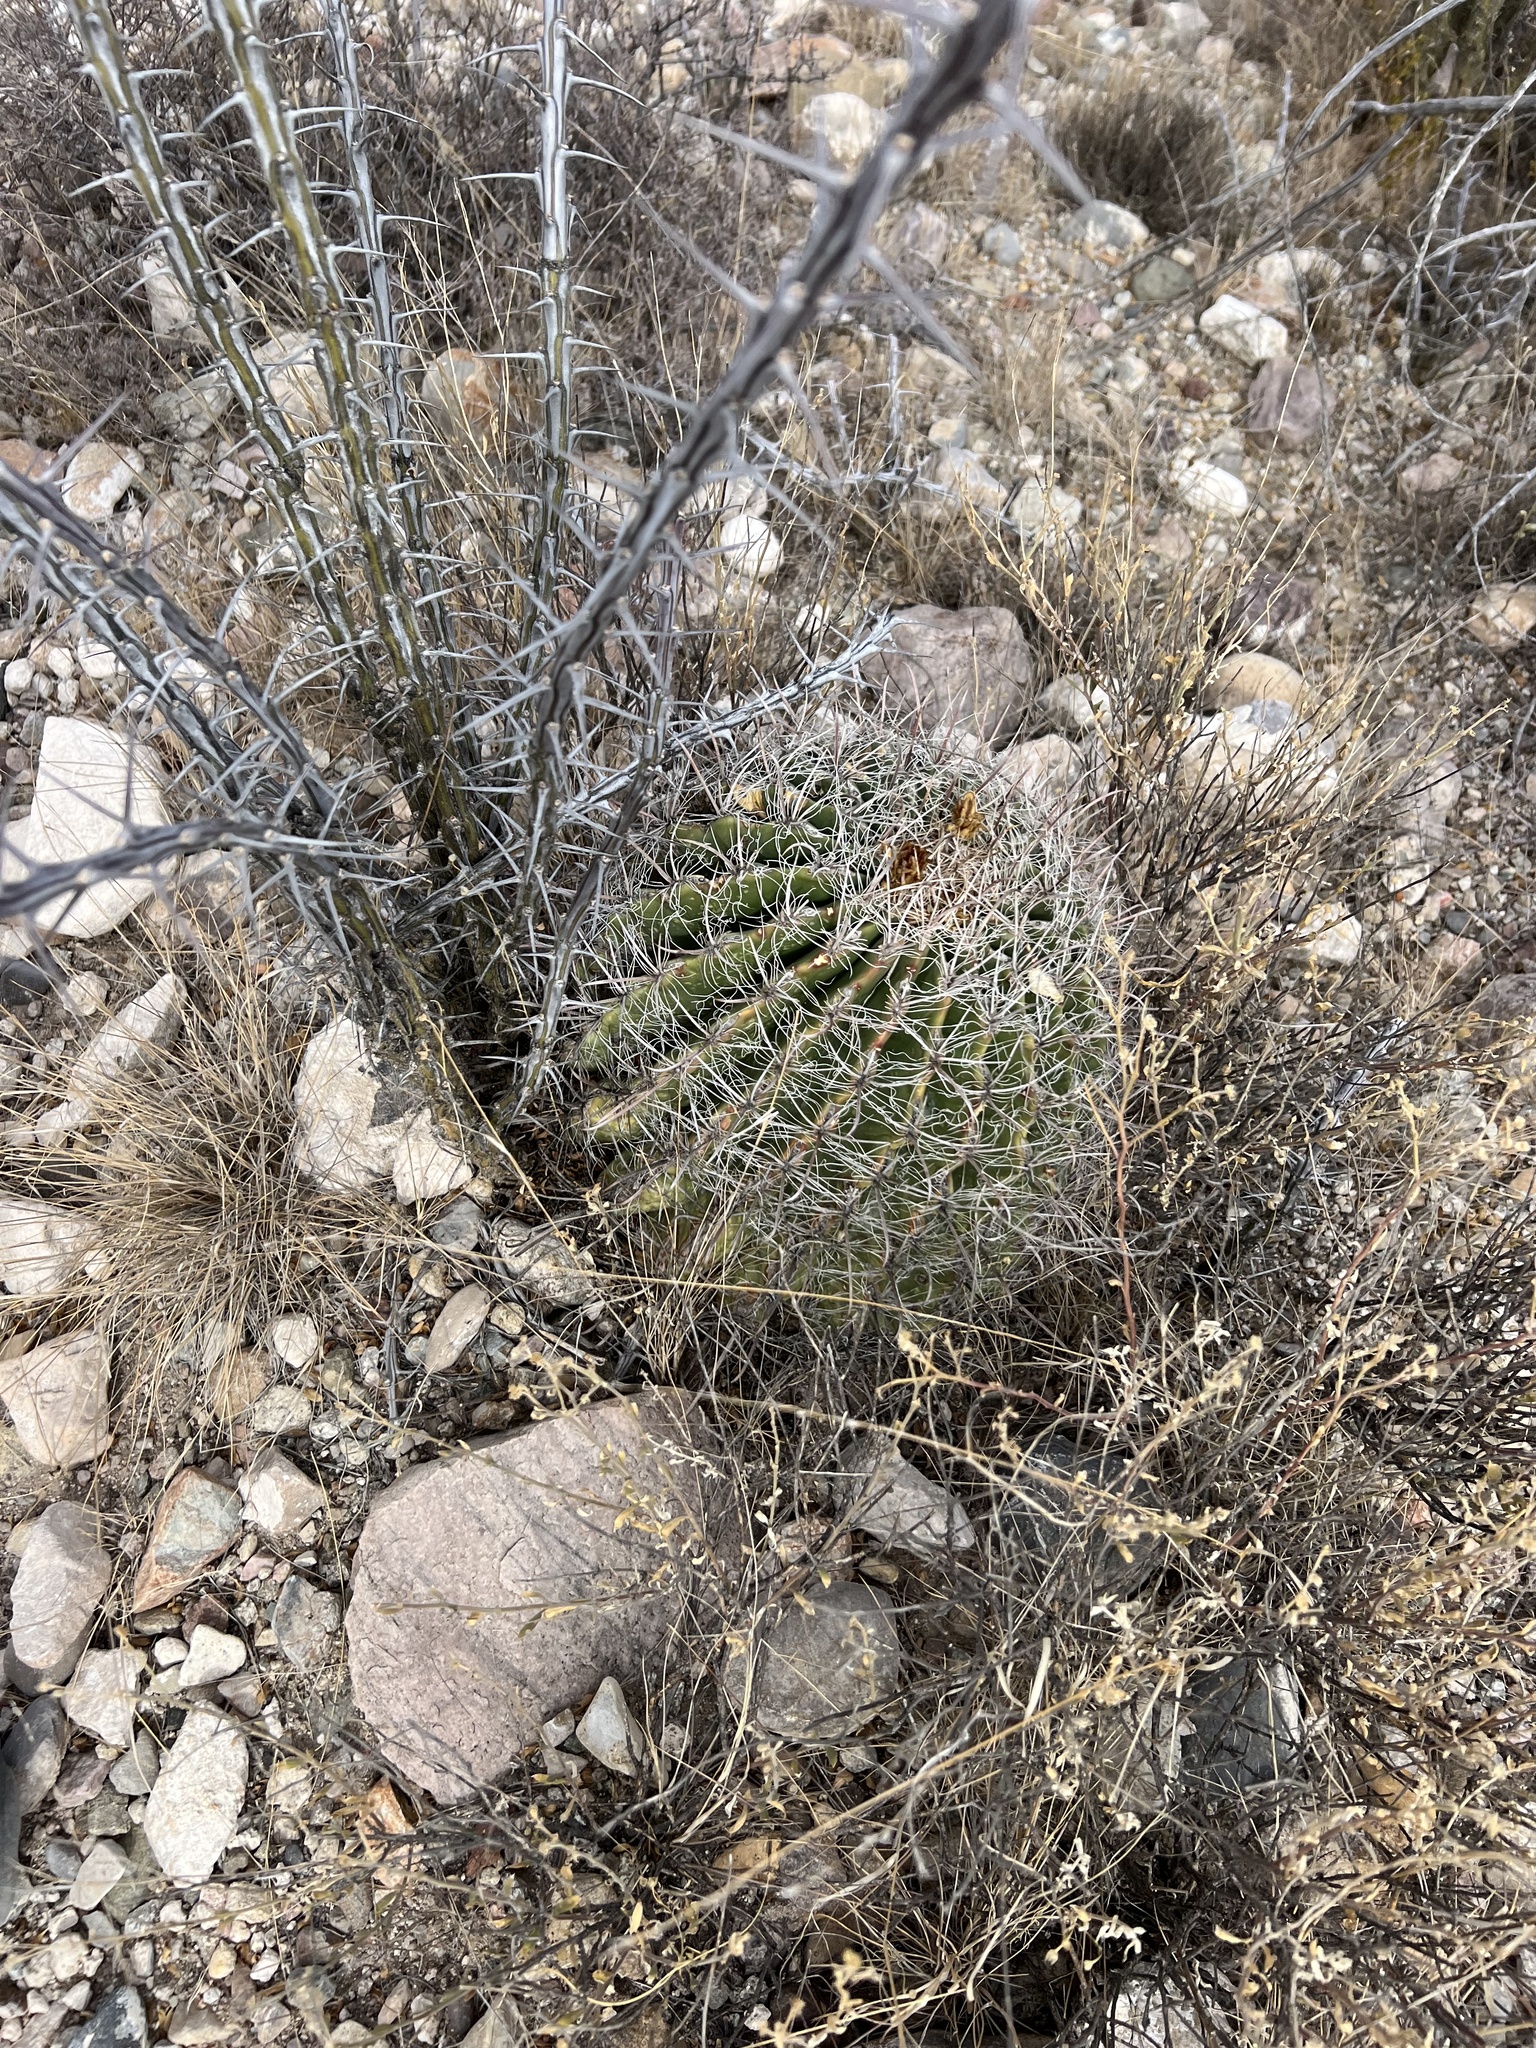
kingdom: Plantae
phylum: Tracheophyta
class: Magnoliopsida
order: Caryophyllales
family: Cactaceae
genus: Ferocactus
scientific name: Ferocactus wislizeni
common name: Candy barrel cactus
